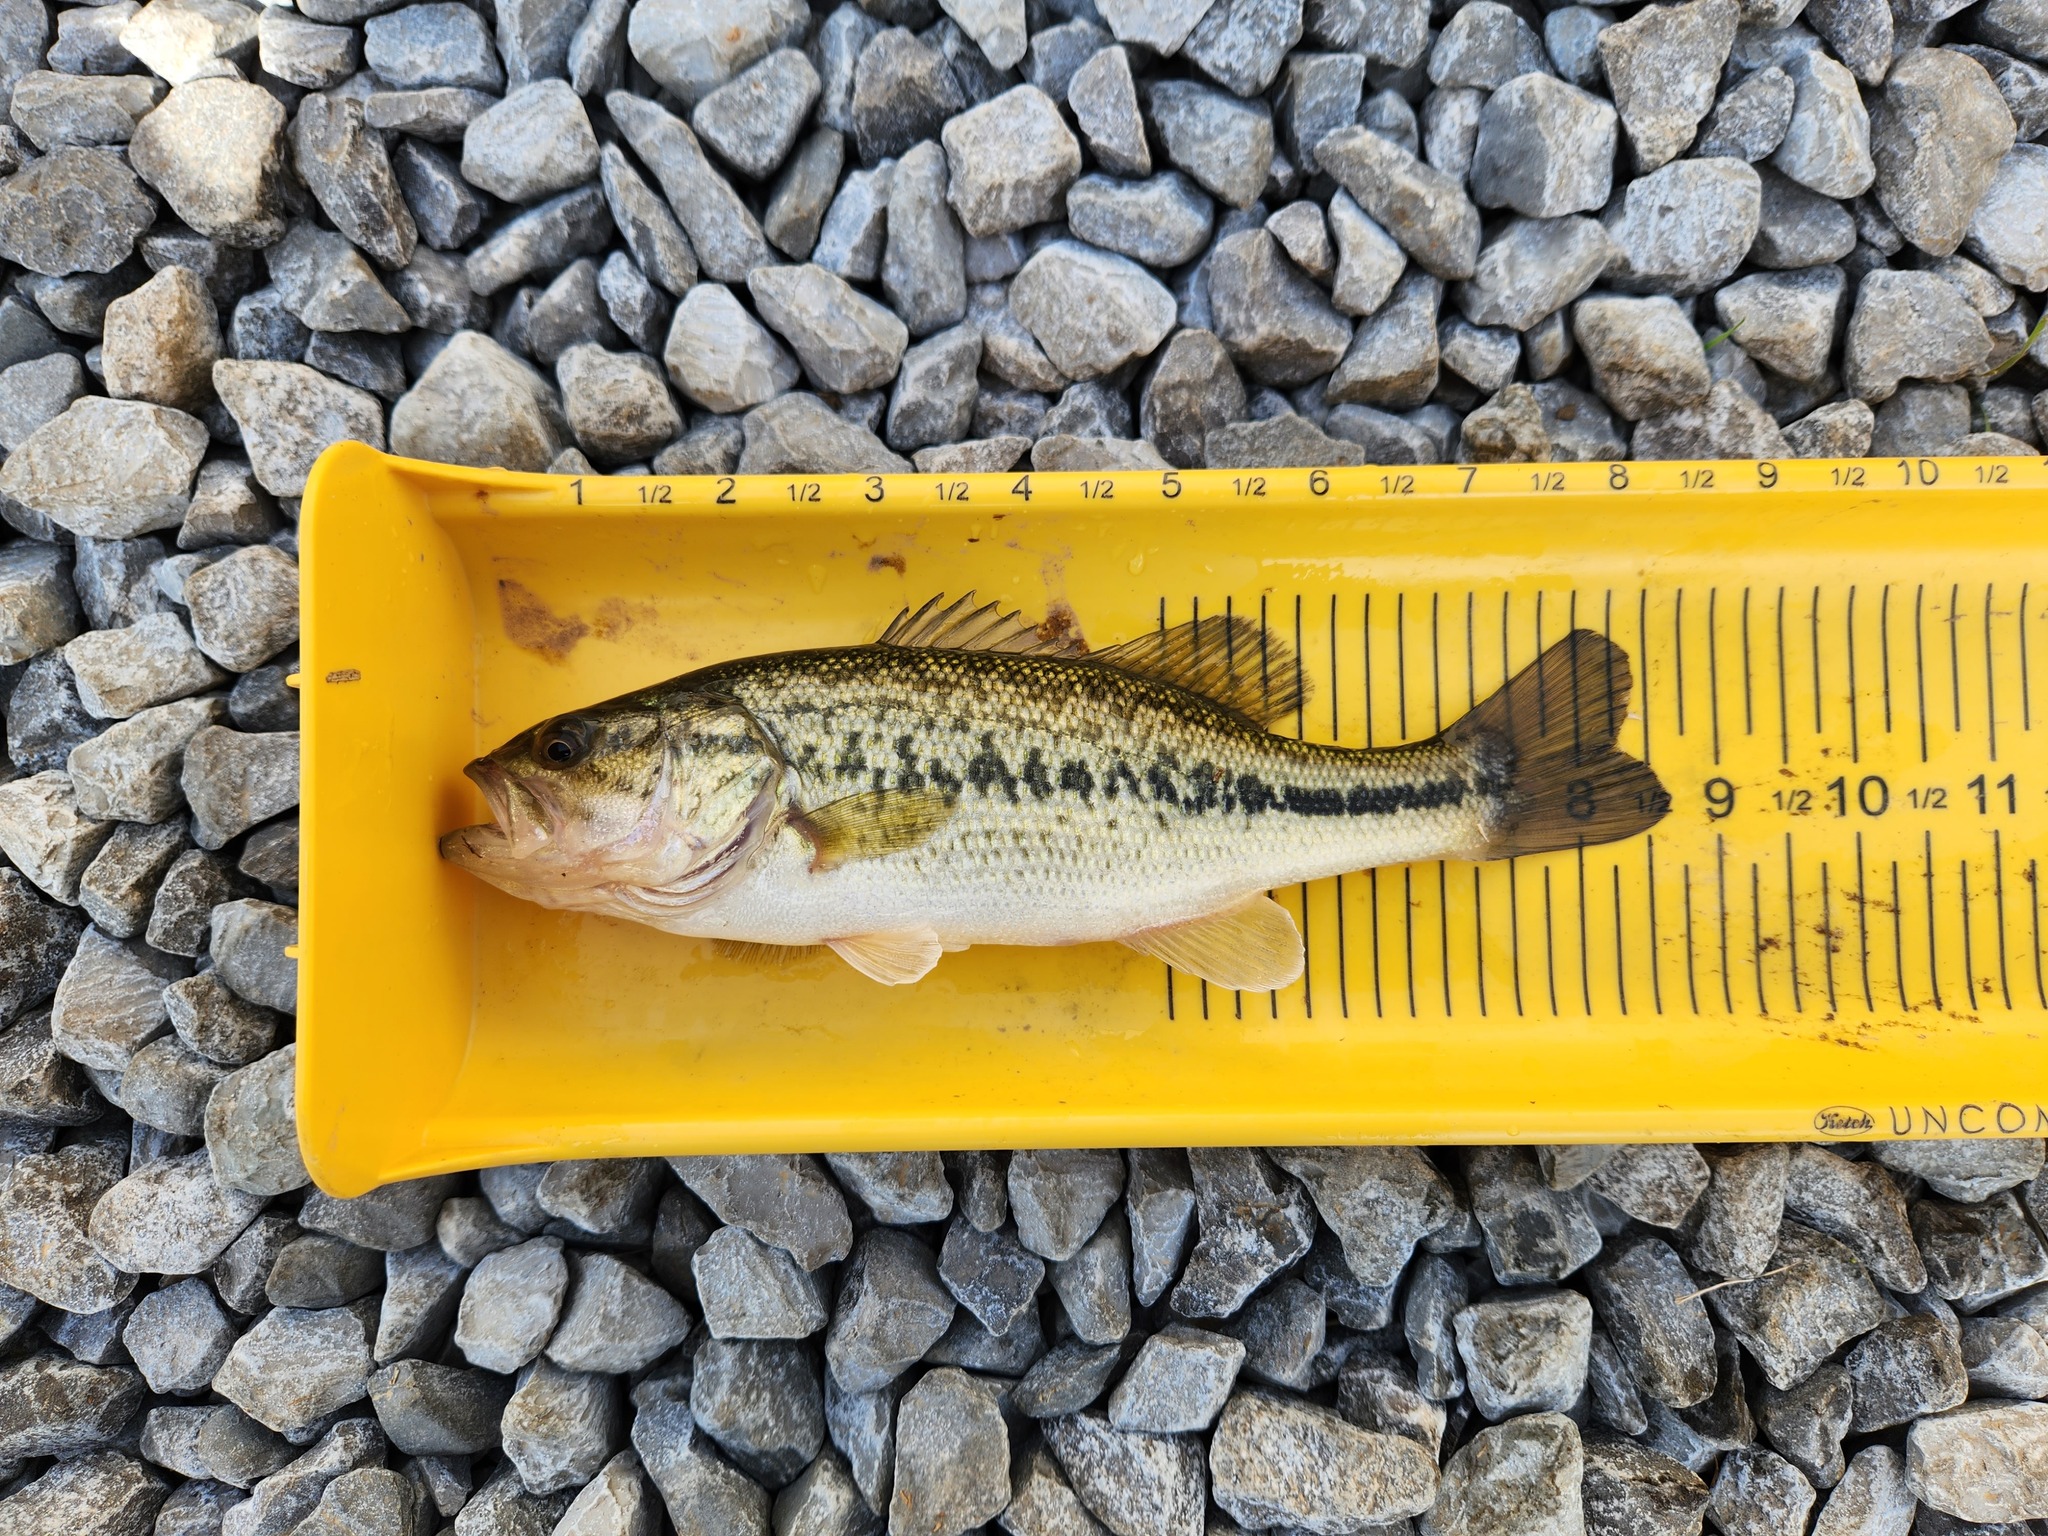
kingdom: Animalia
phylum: Chordata
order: Perciformes
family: Centrarchidae
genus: Micropterus
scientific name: Micropterus
